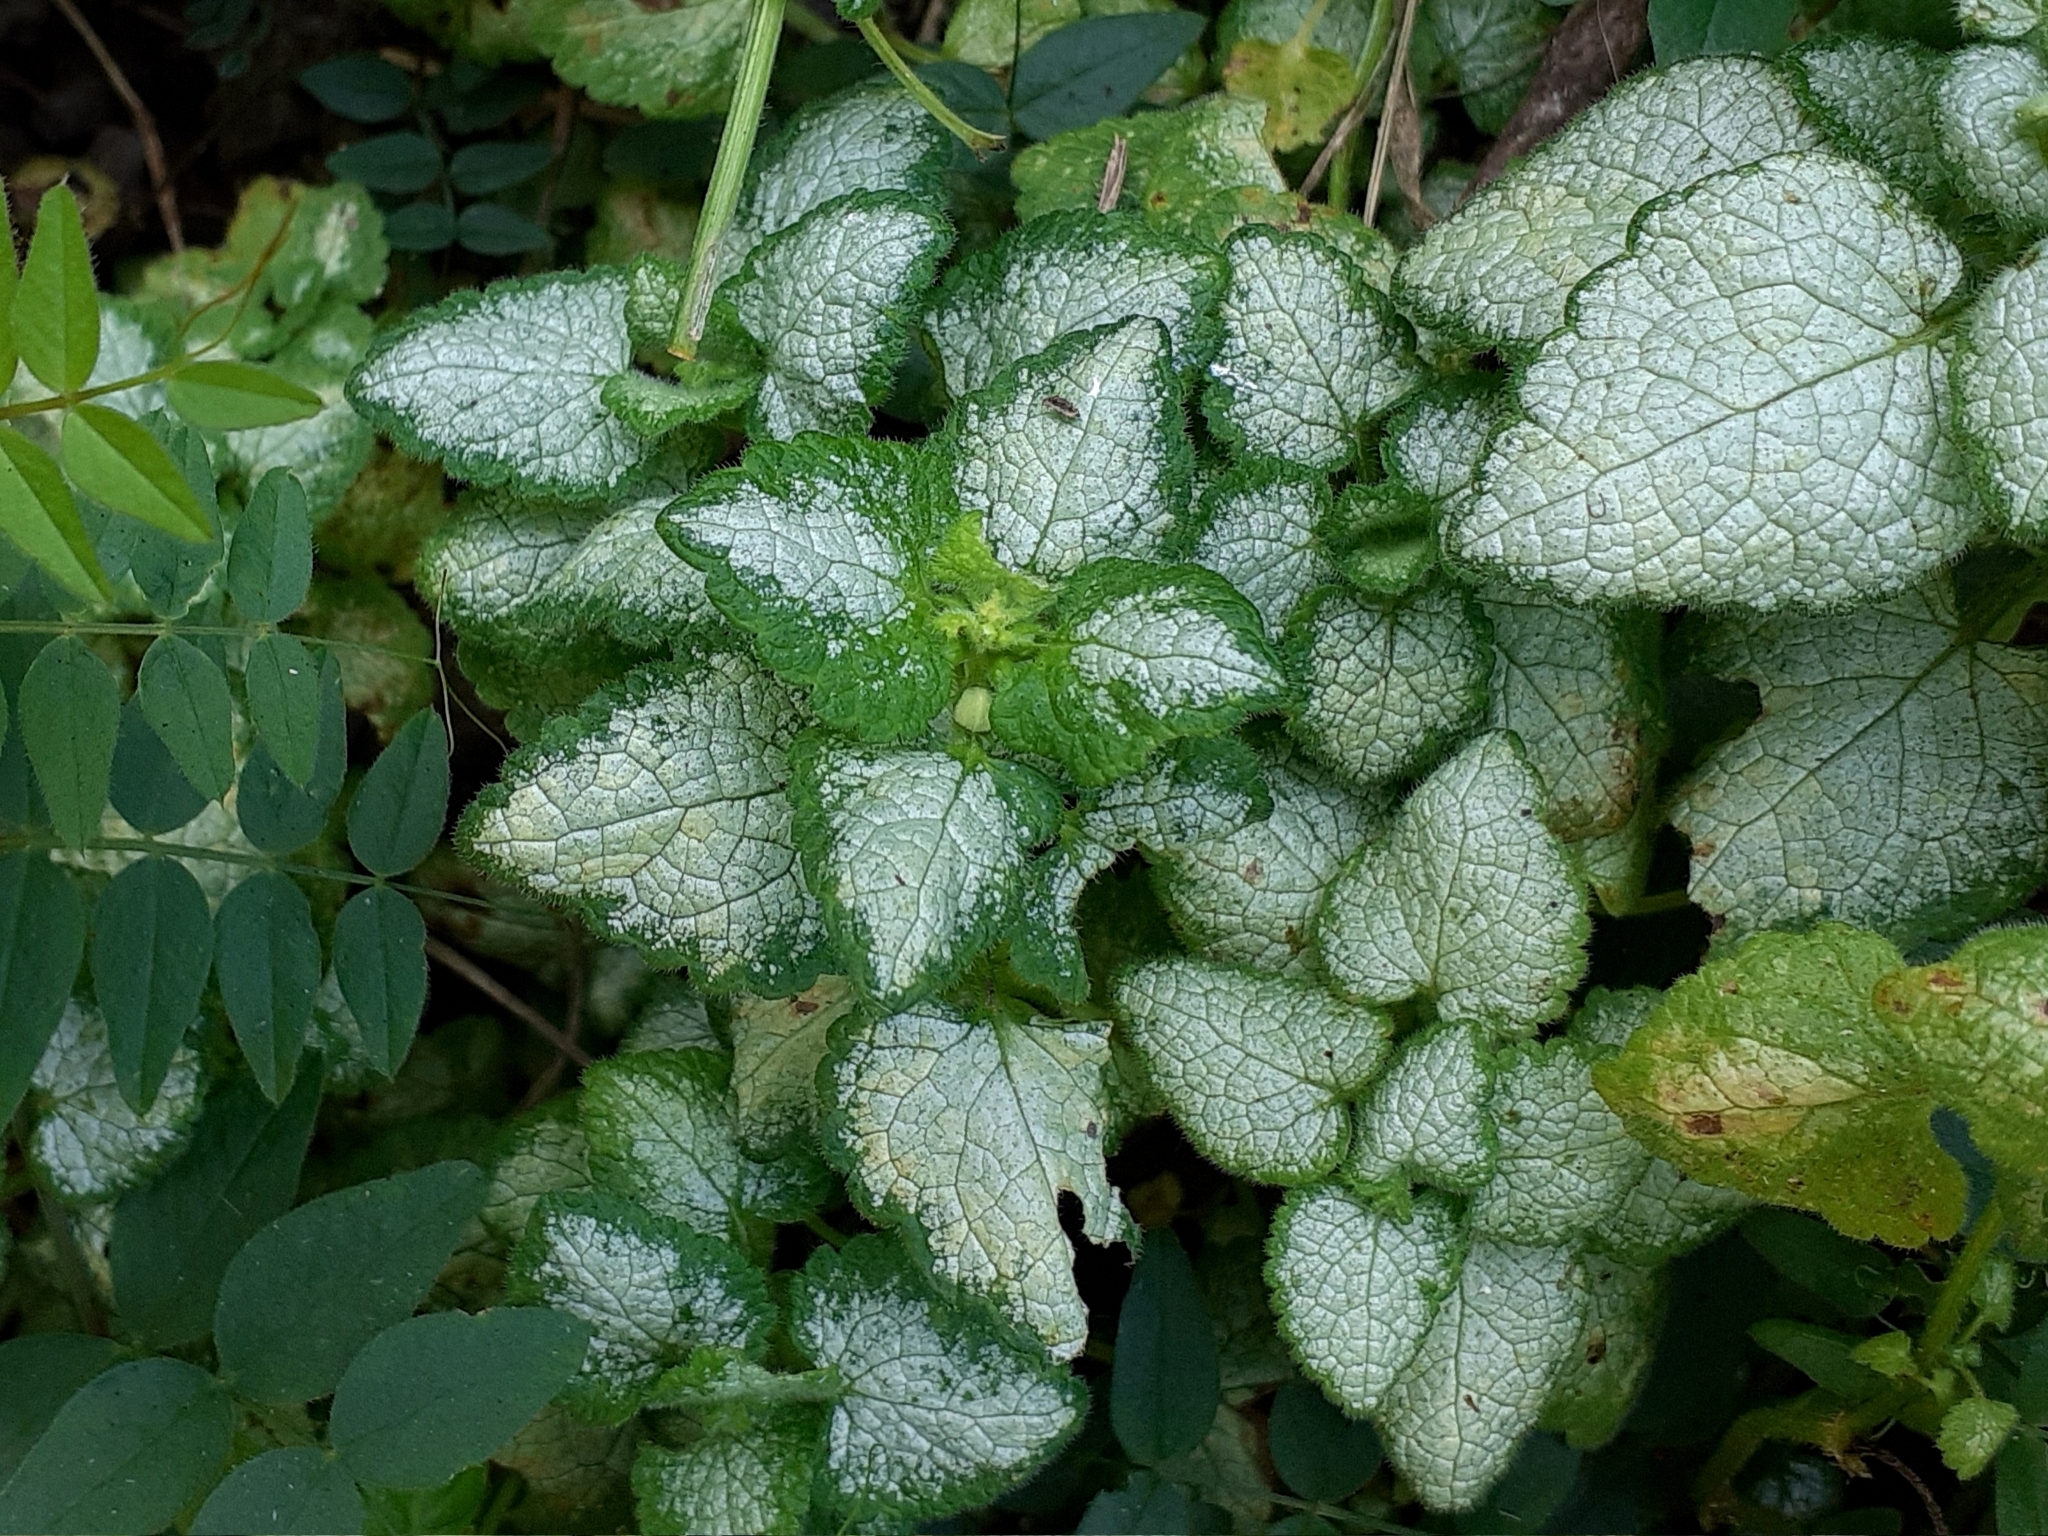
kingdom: Plantae
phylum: Tracheophyta
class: Magnoliopsida
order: Lamiales
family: Lamiaceae
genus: Lamium
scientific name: Lamium maculatum
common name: Spotted dead-nettle
